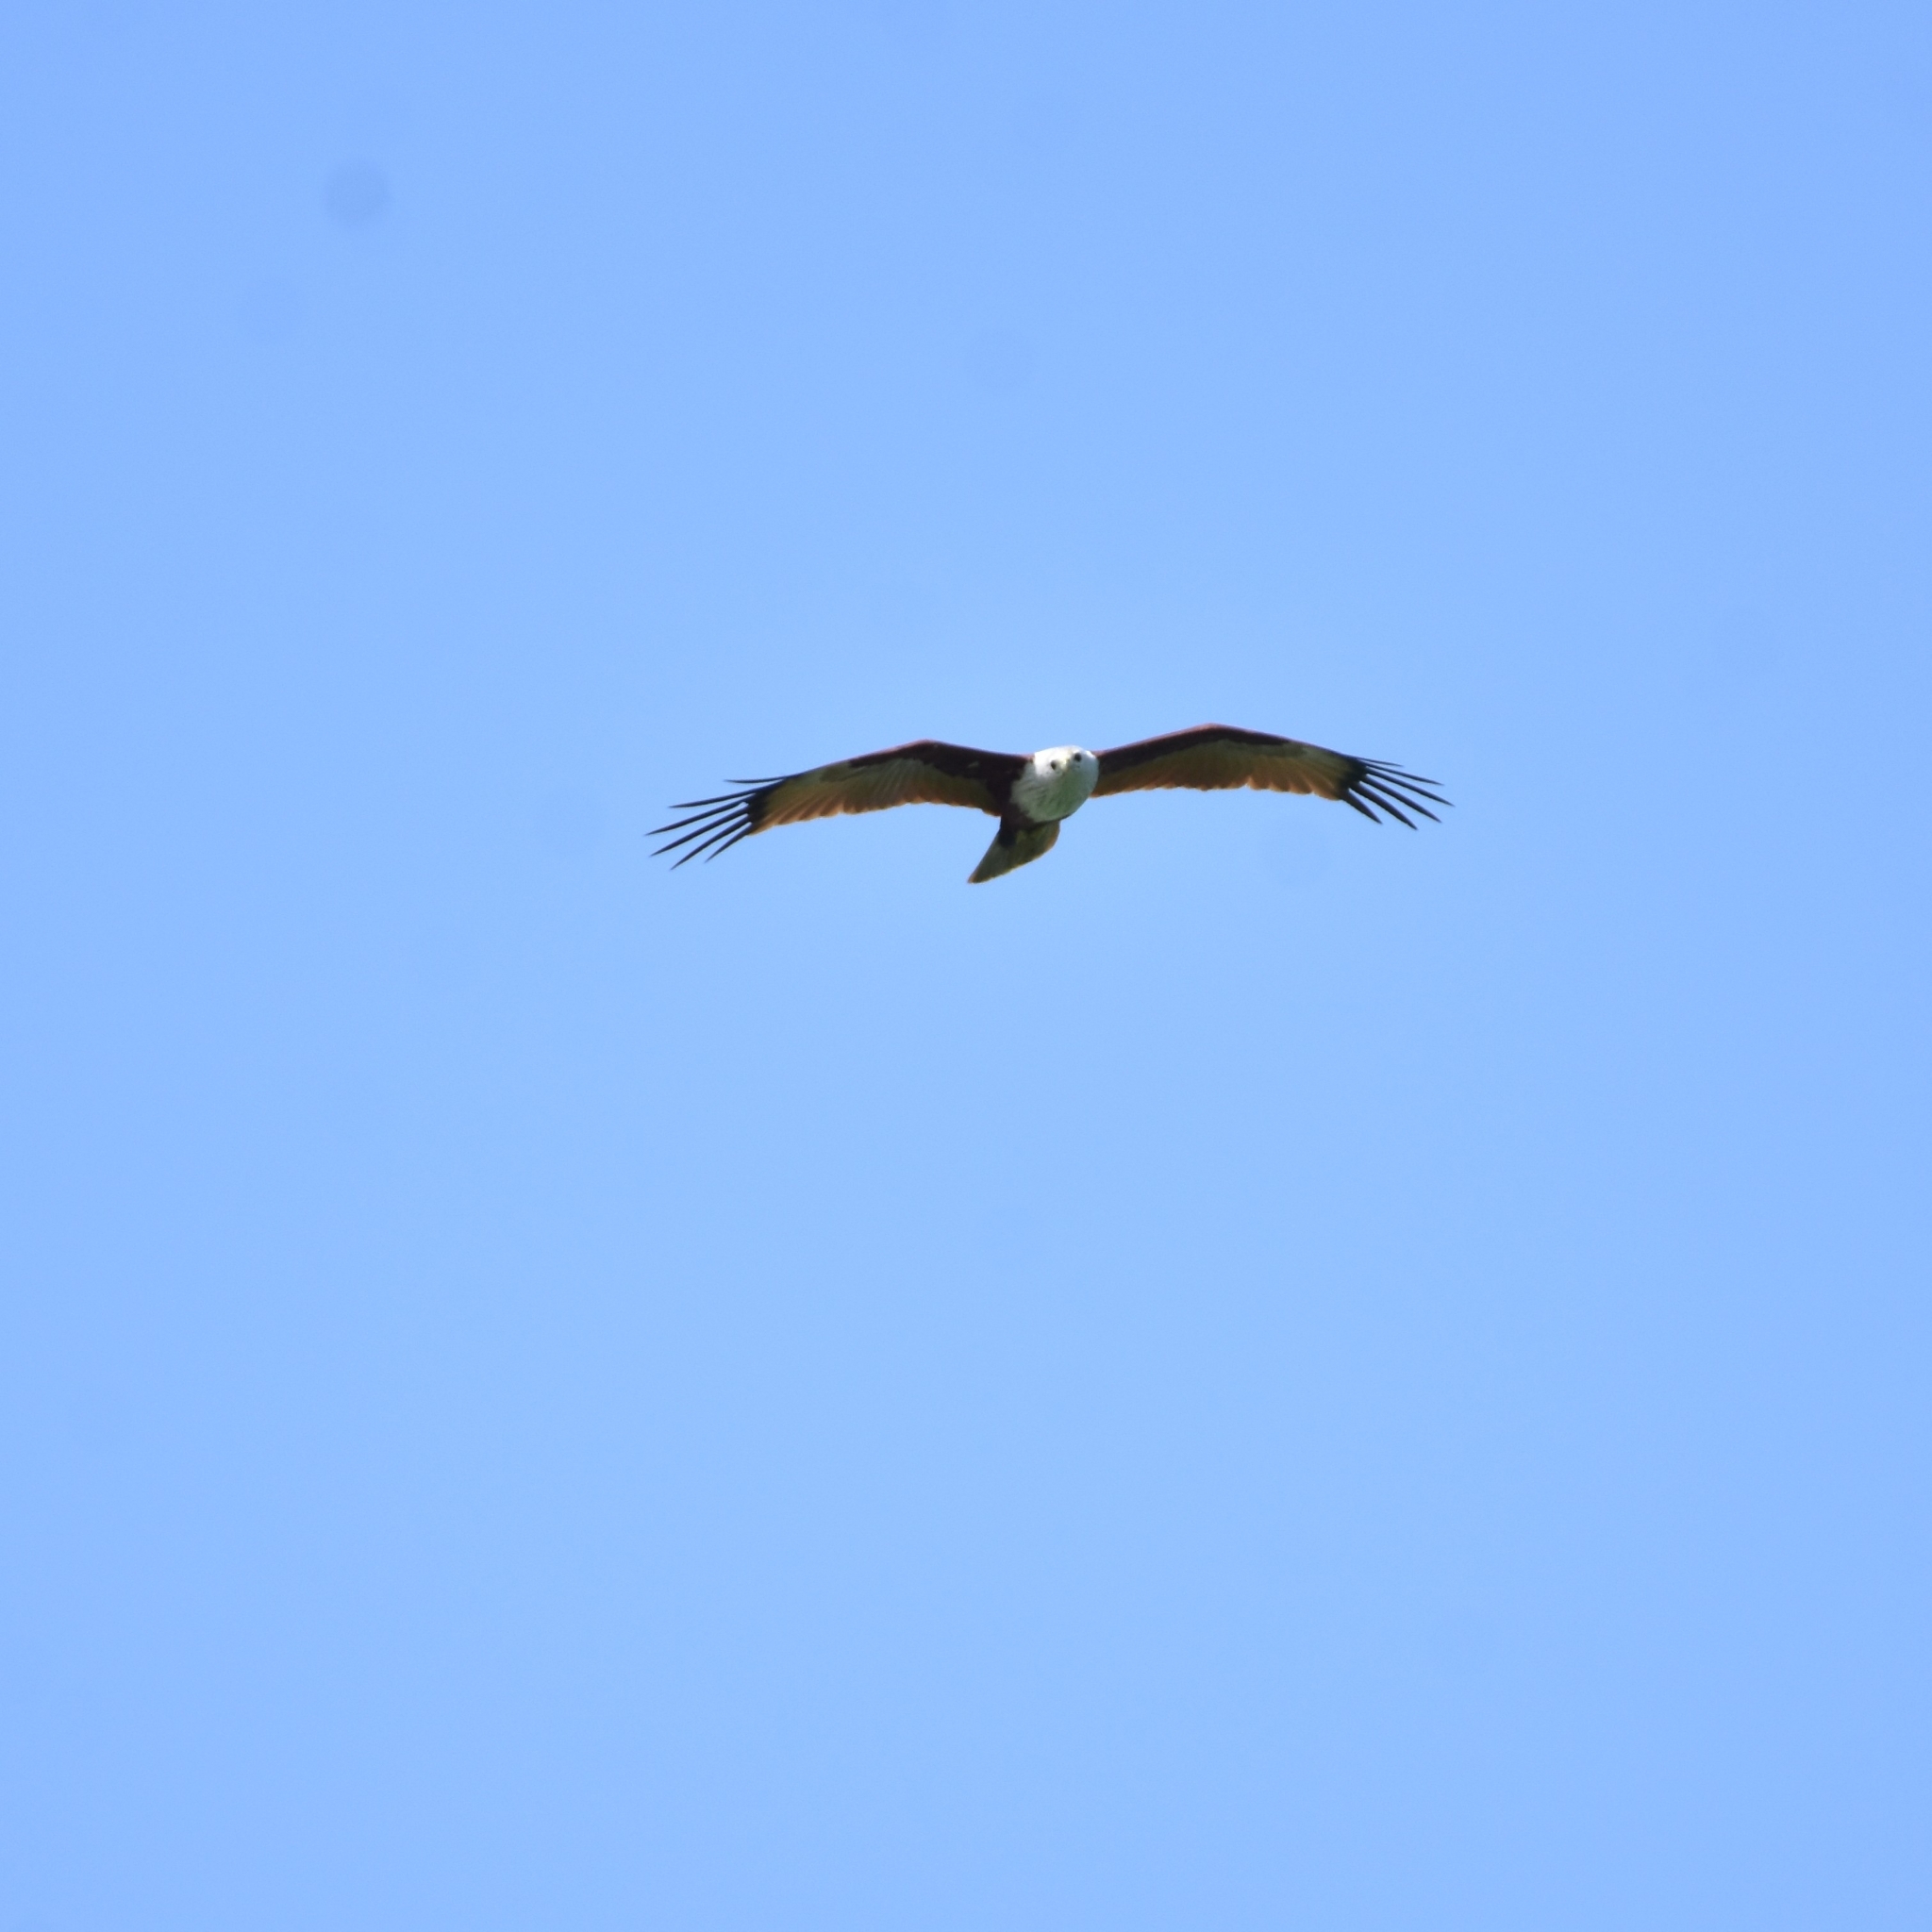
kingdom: Animalia
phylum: Chordata
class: Aves
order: Accipitriformes
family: Accipitridae
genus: Haliastur
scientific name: Haliastur indus
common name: Brahminy kite
